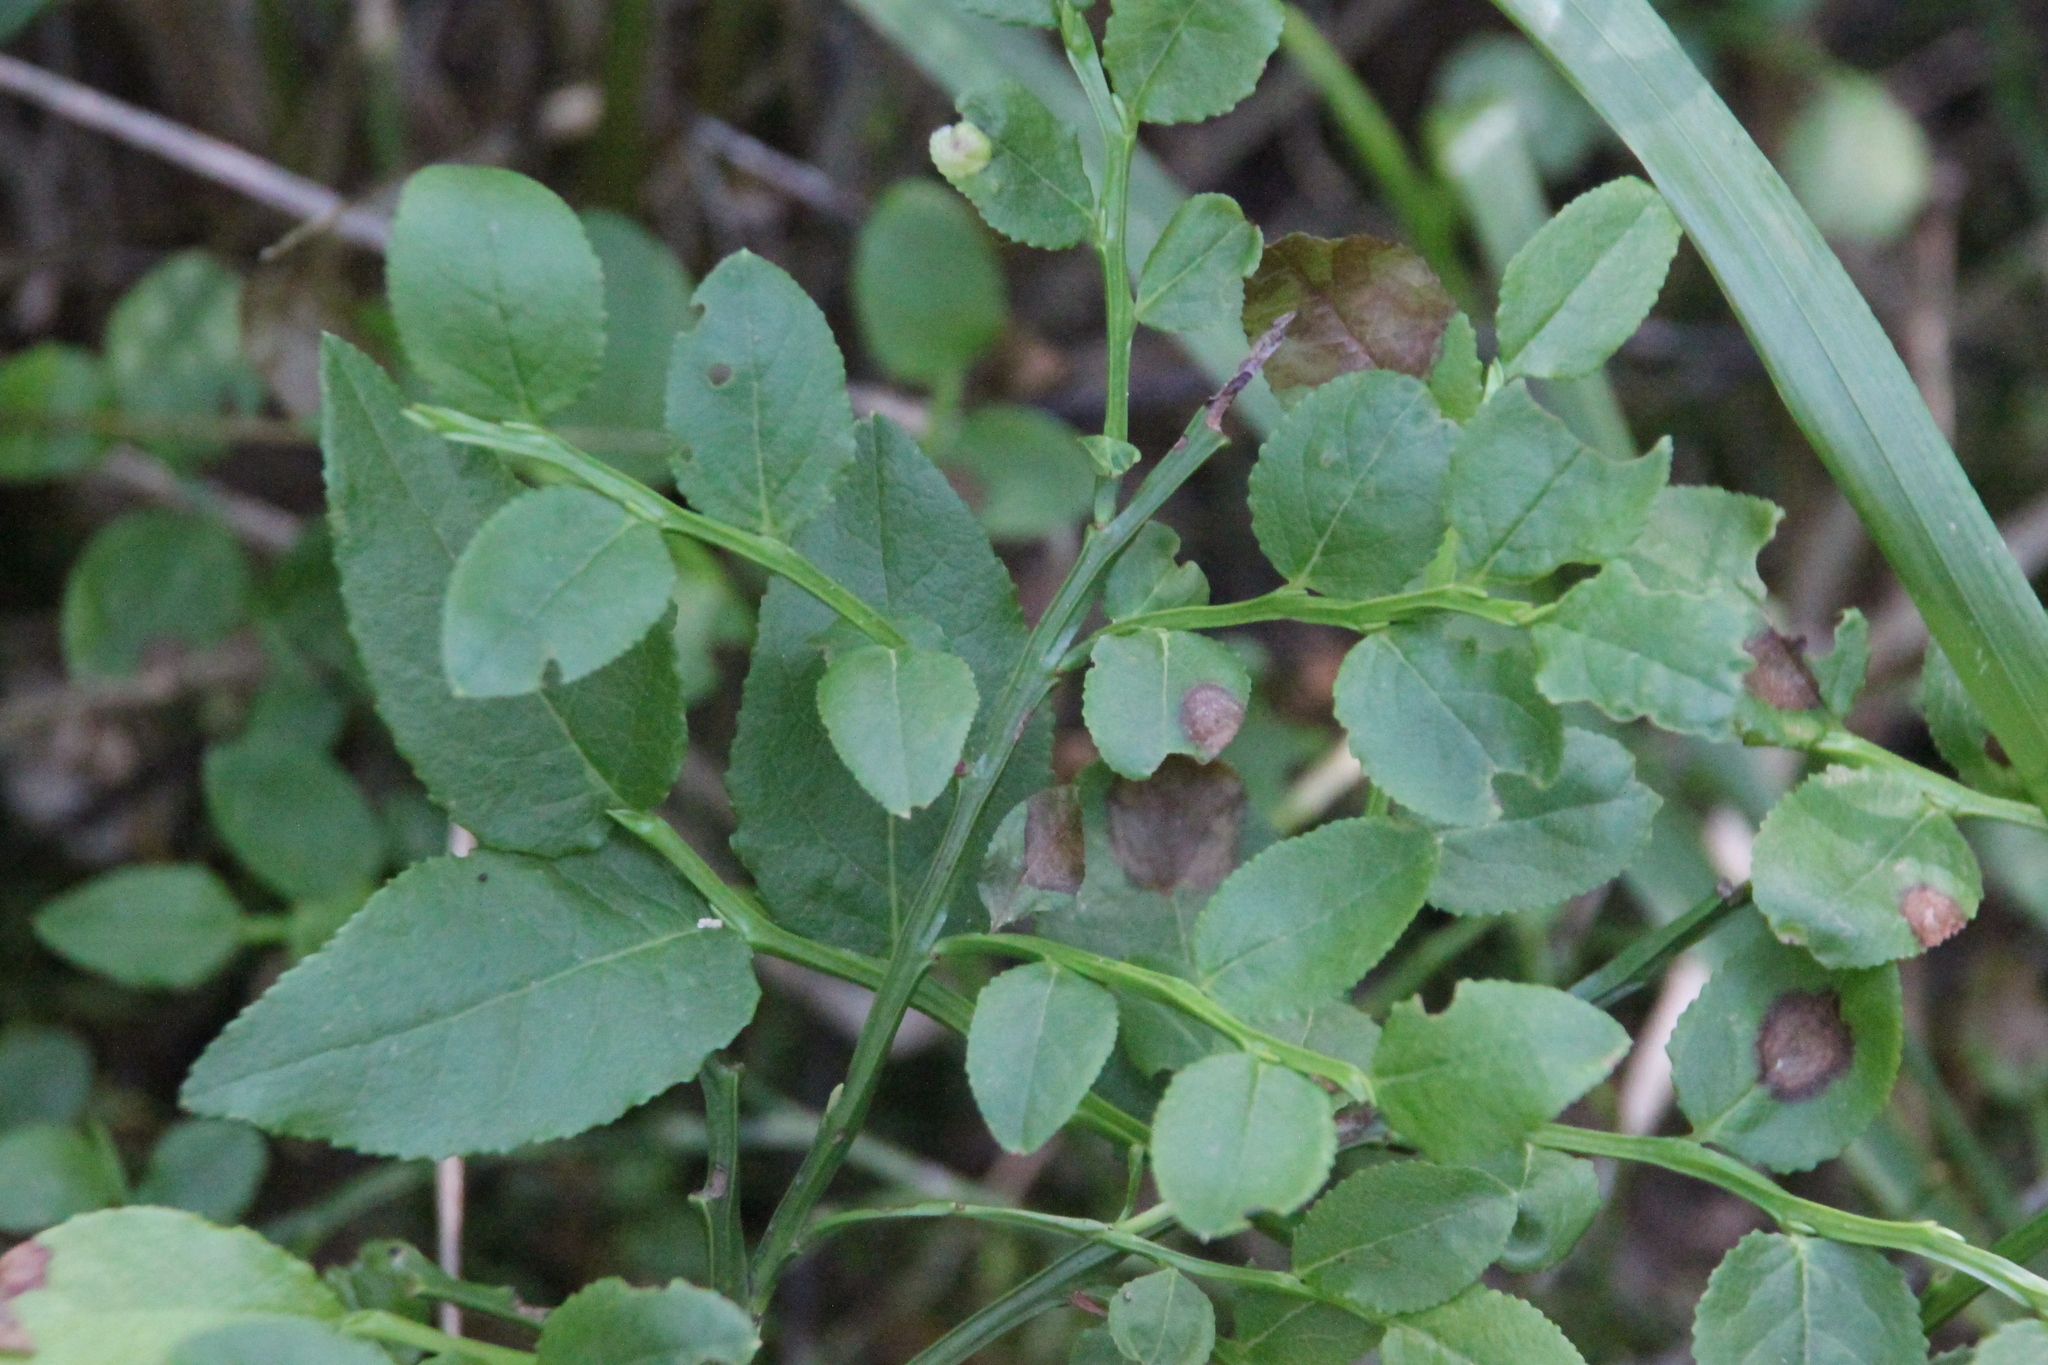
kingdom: Plantae
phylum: Tracheophyta
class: Magnoliopsida
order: Ericales
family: Ericaceae
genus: Vaccinium
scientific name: Vaccinium myrtillus
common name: Bilberry
